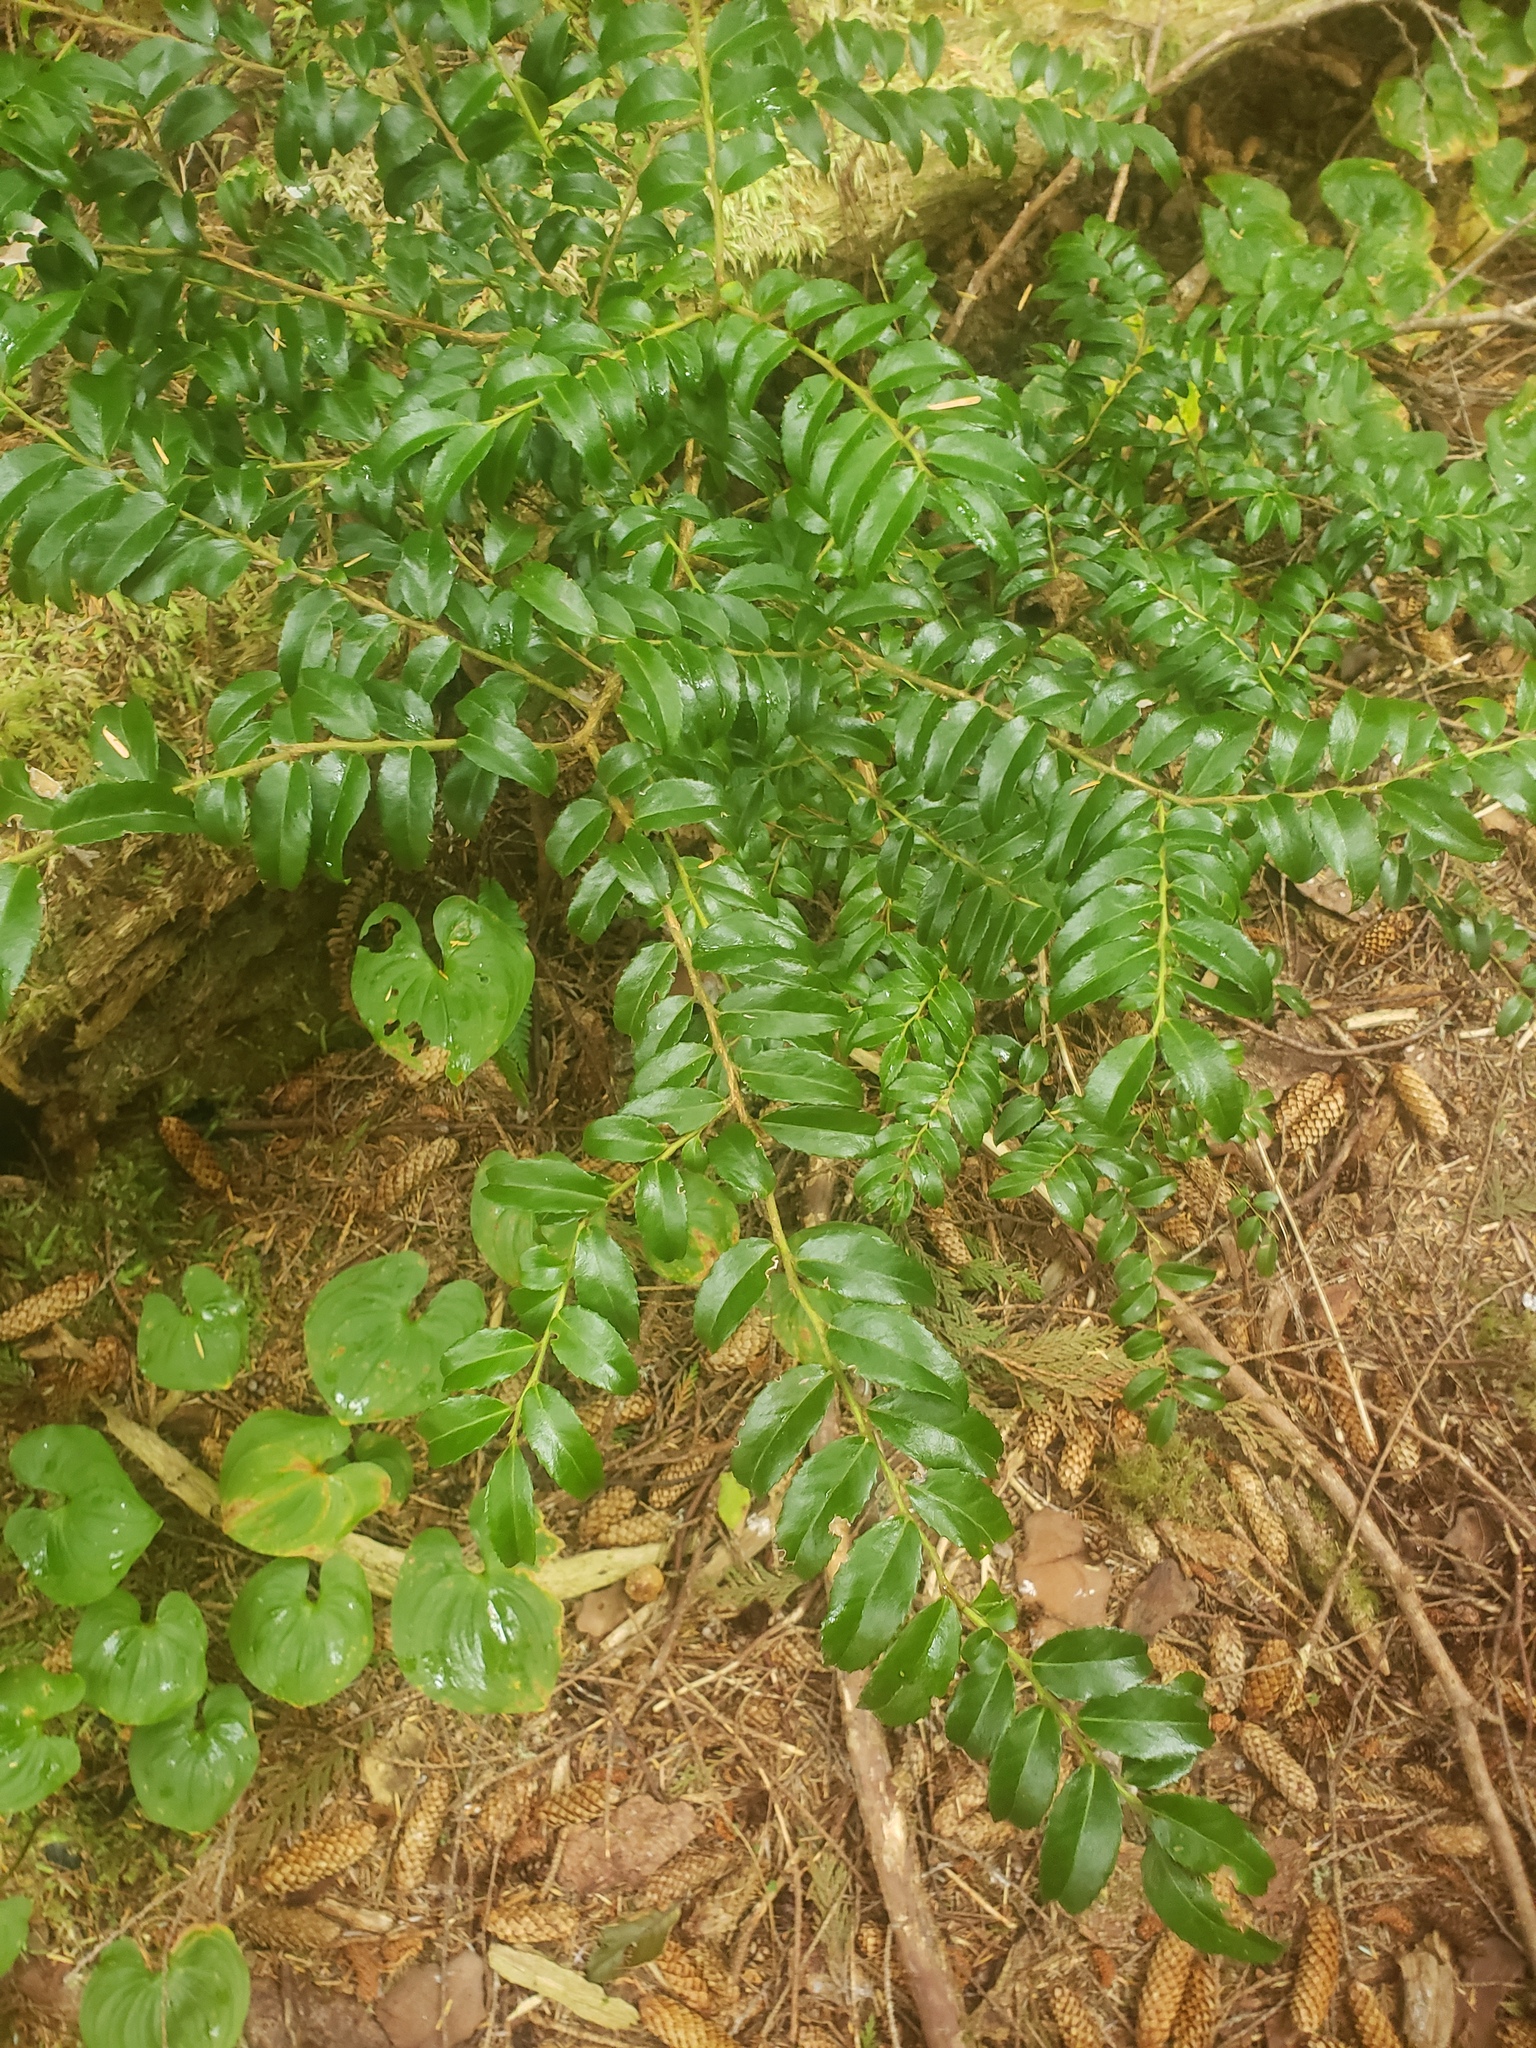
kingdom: Plantae
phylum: Tracheophyta
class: Magnoliopsida
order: Ericales
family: Ericaceae
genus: Vaccinium
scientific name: Vaccinium ovatum
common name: California-huckleberry
